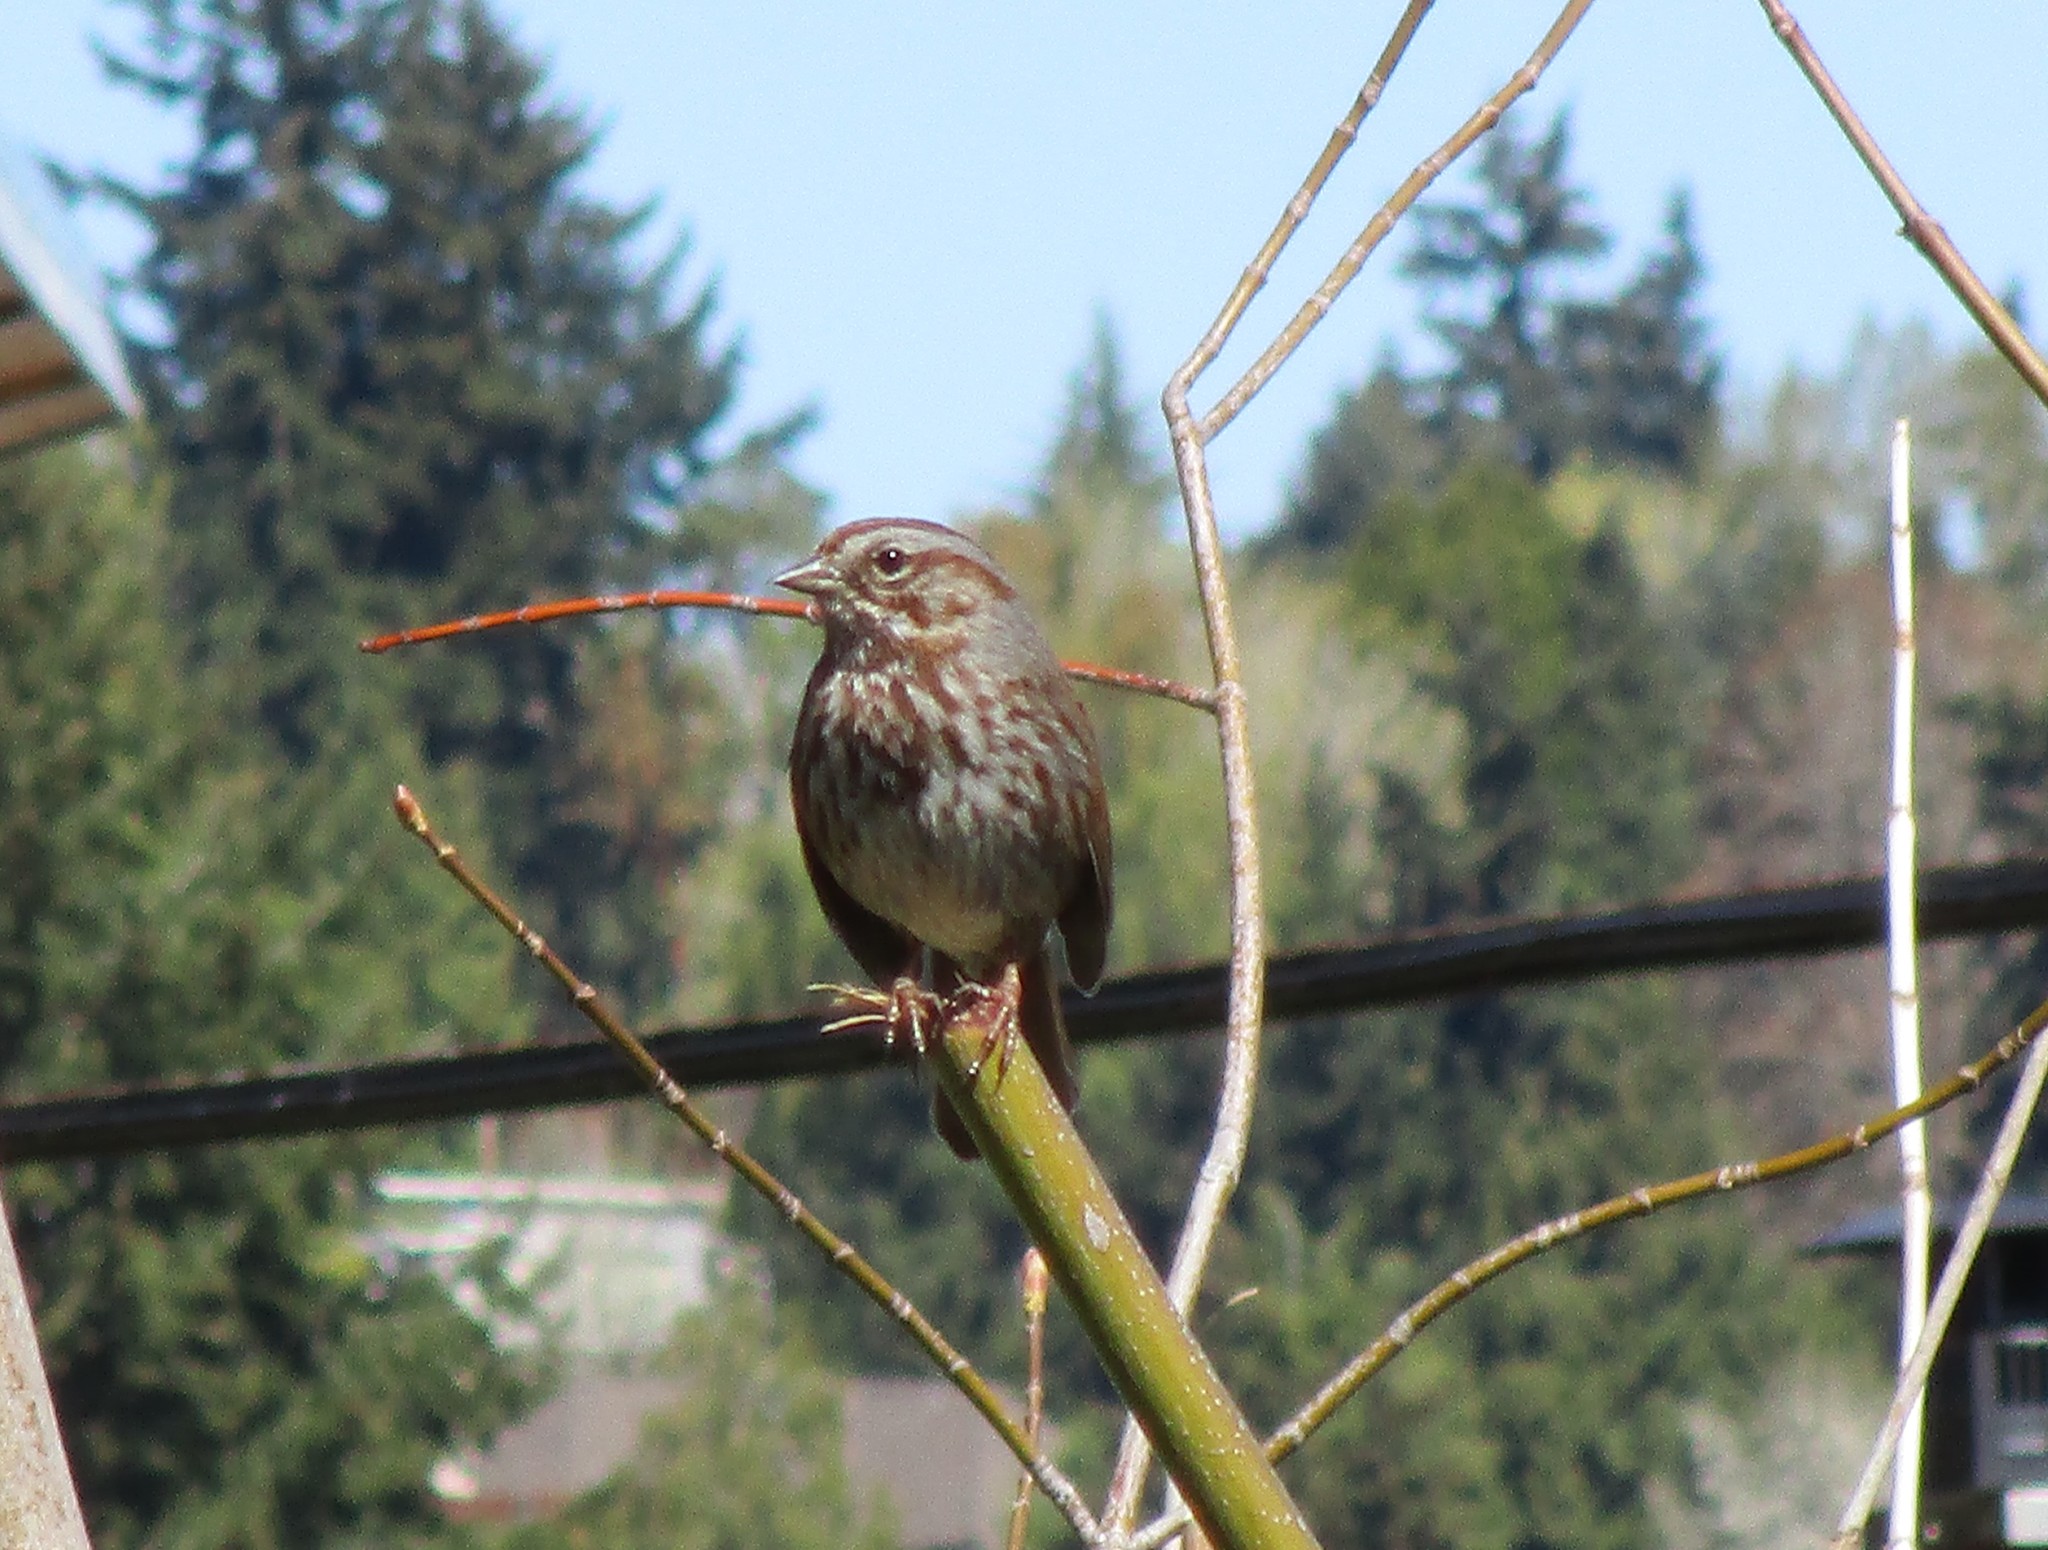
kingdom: Animalia
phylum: Chordata
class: Aves
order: Passeriformes
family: Passerellidae
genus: Melospiza
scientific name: Melospiza melodia
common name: Song sparrow
